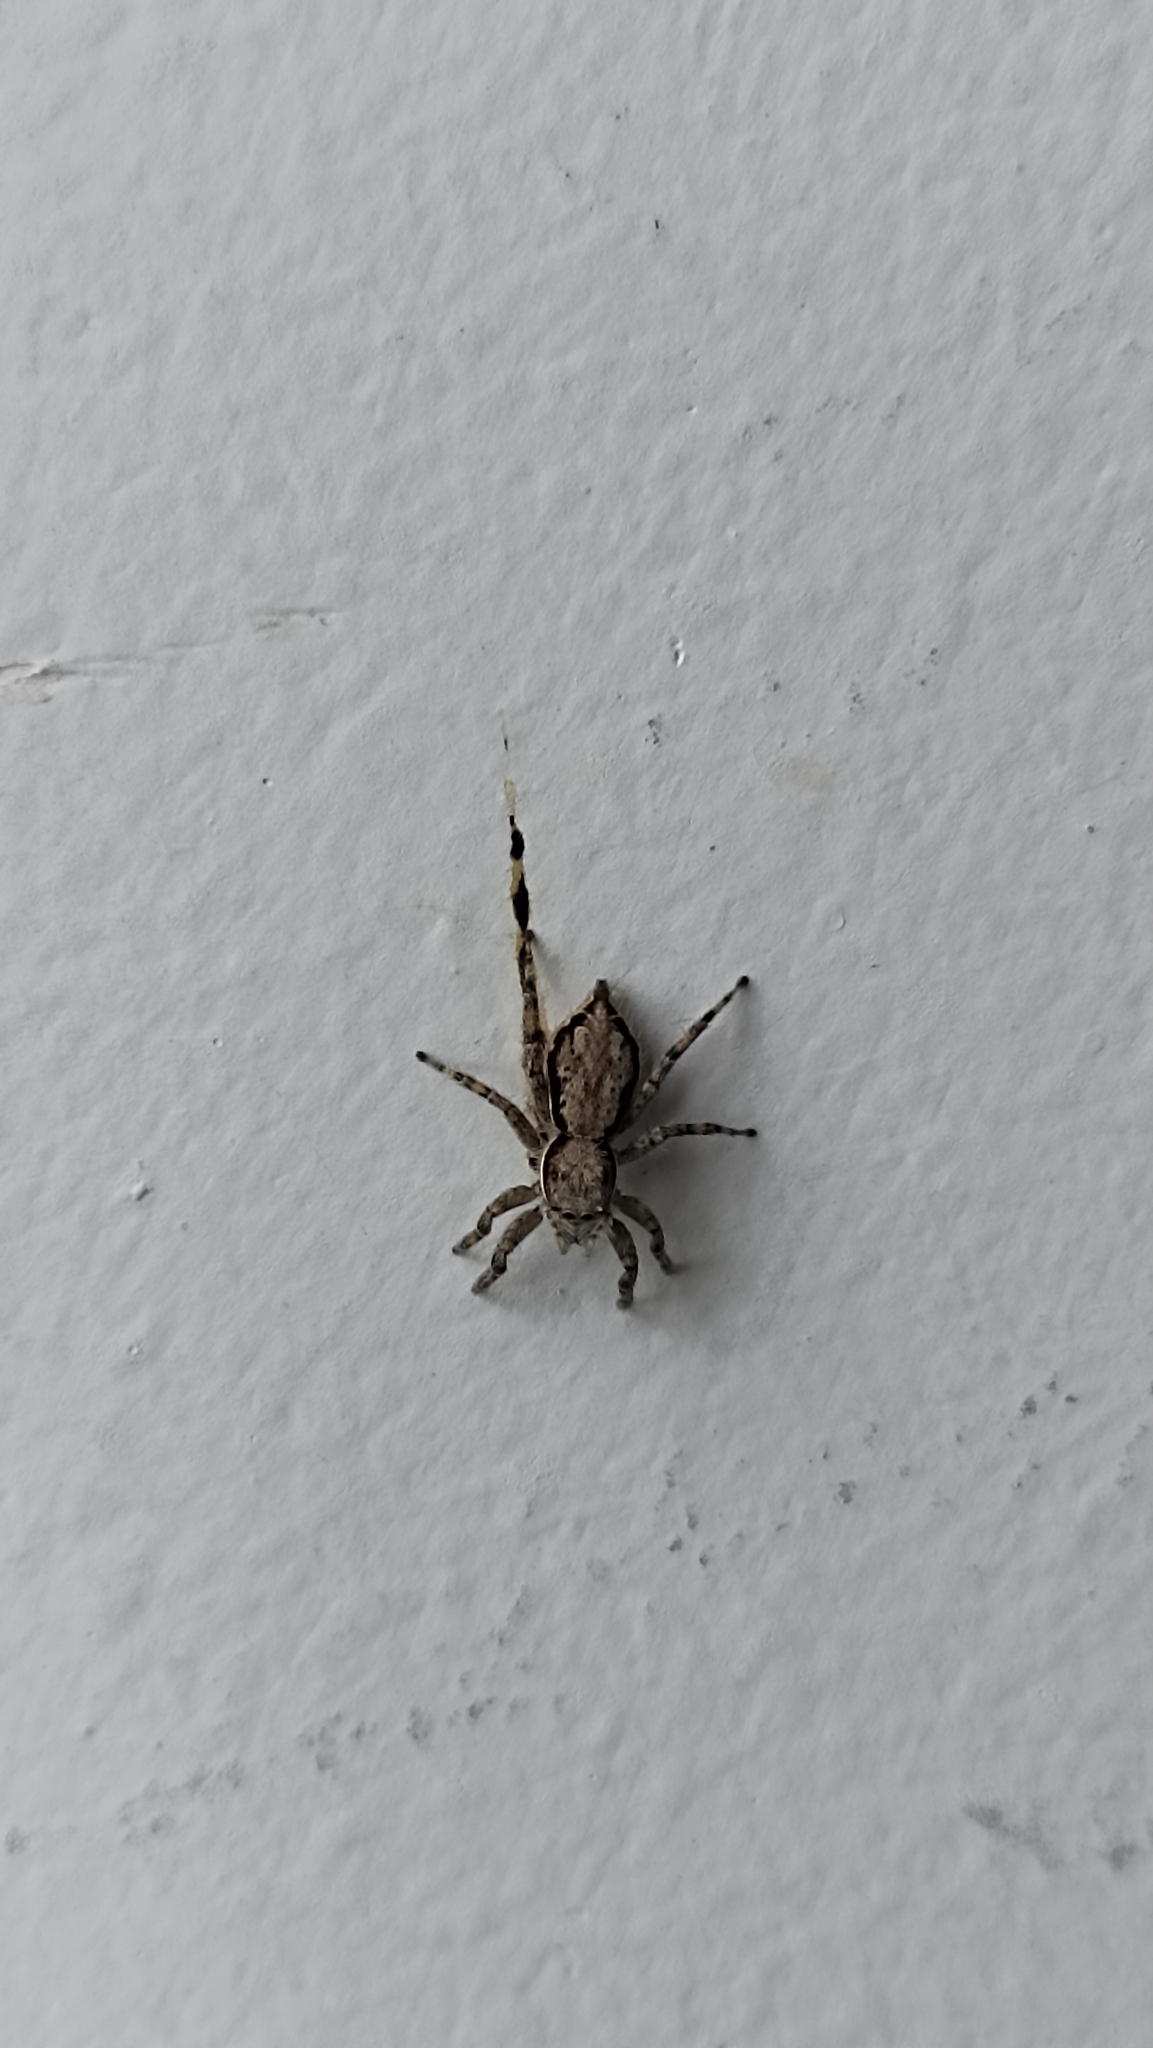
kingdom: Animalia
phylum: Arthropoda
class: Arachnida
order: Araneae
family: Salticidae
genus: Menemerus
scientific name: Menemerus bivittatus
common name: Gray wall jumper
